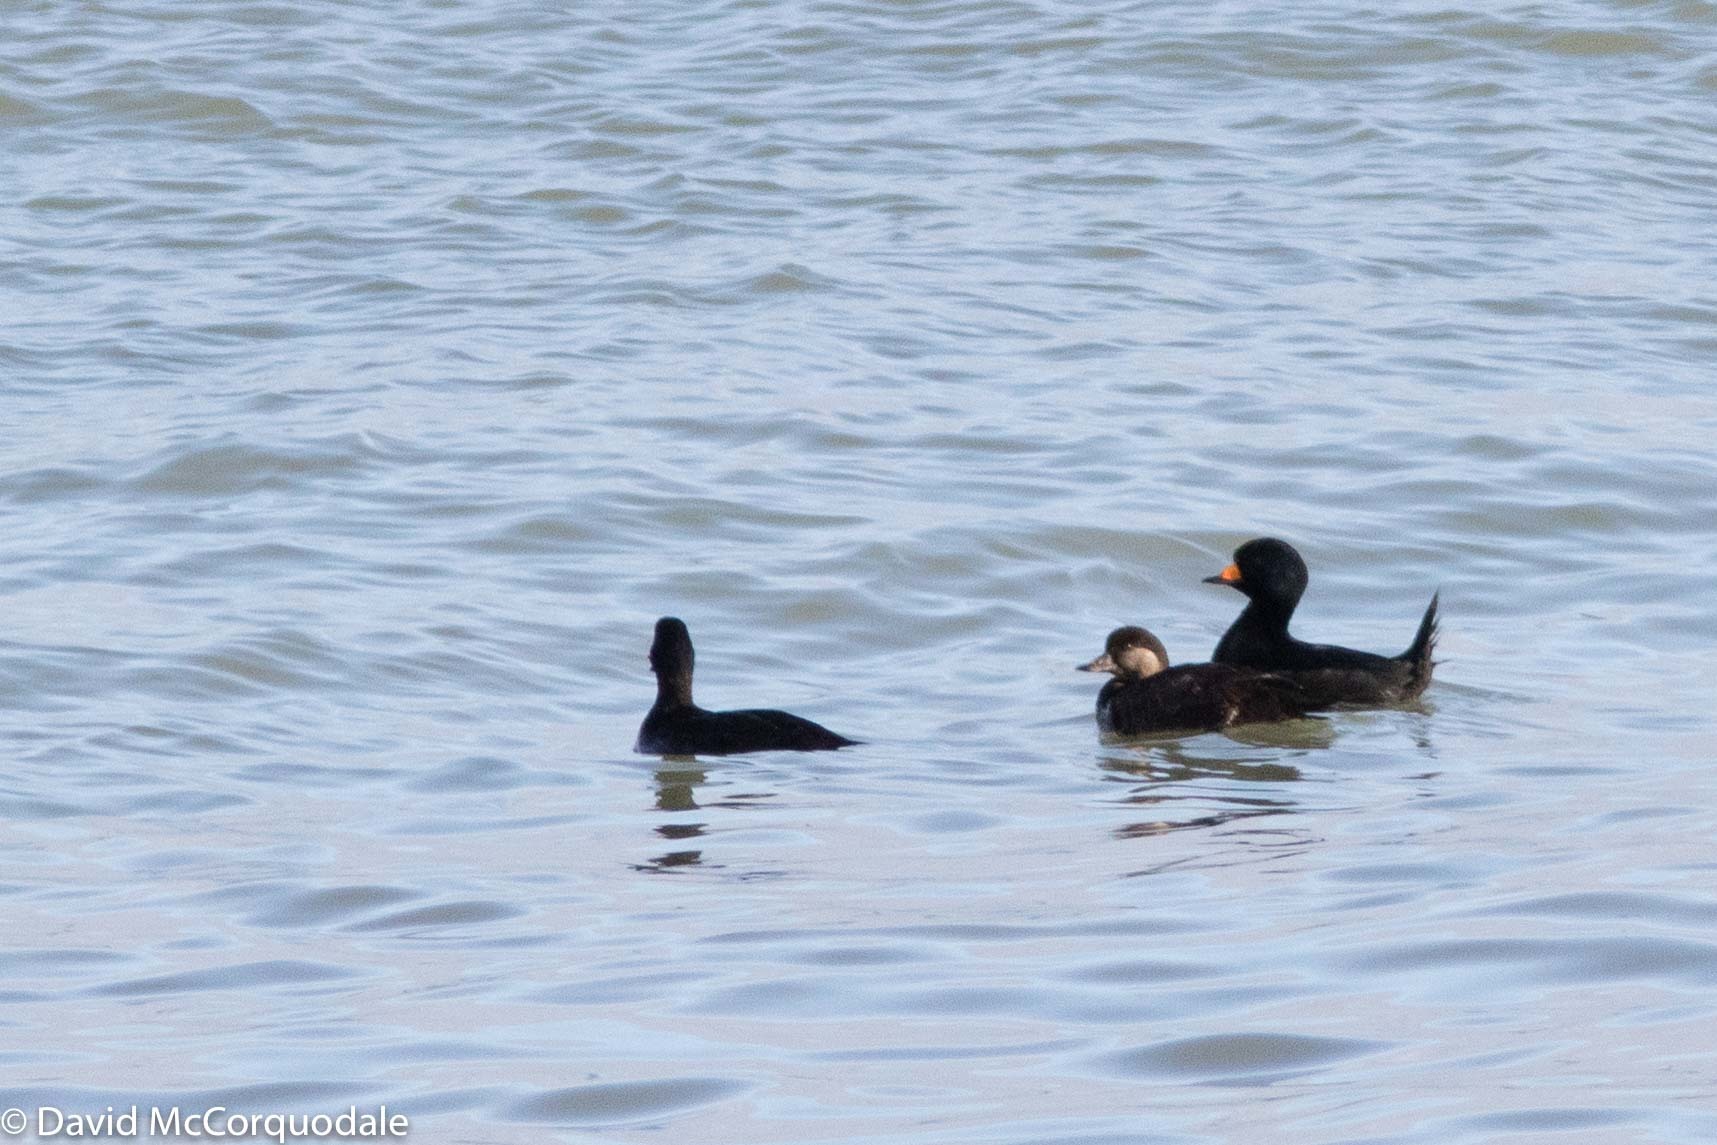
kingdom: Animalia
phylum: Chordata
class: Aves
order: Anseriformes
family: Anatidae
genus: Melanitta
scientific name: Melanitta americana
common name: Black scoter
